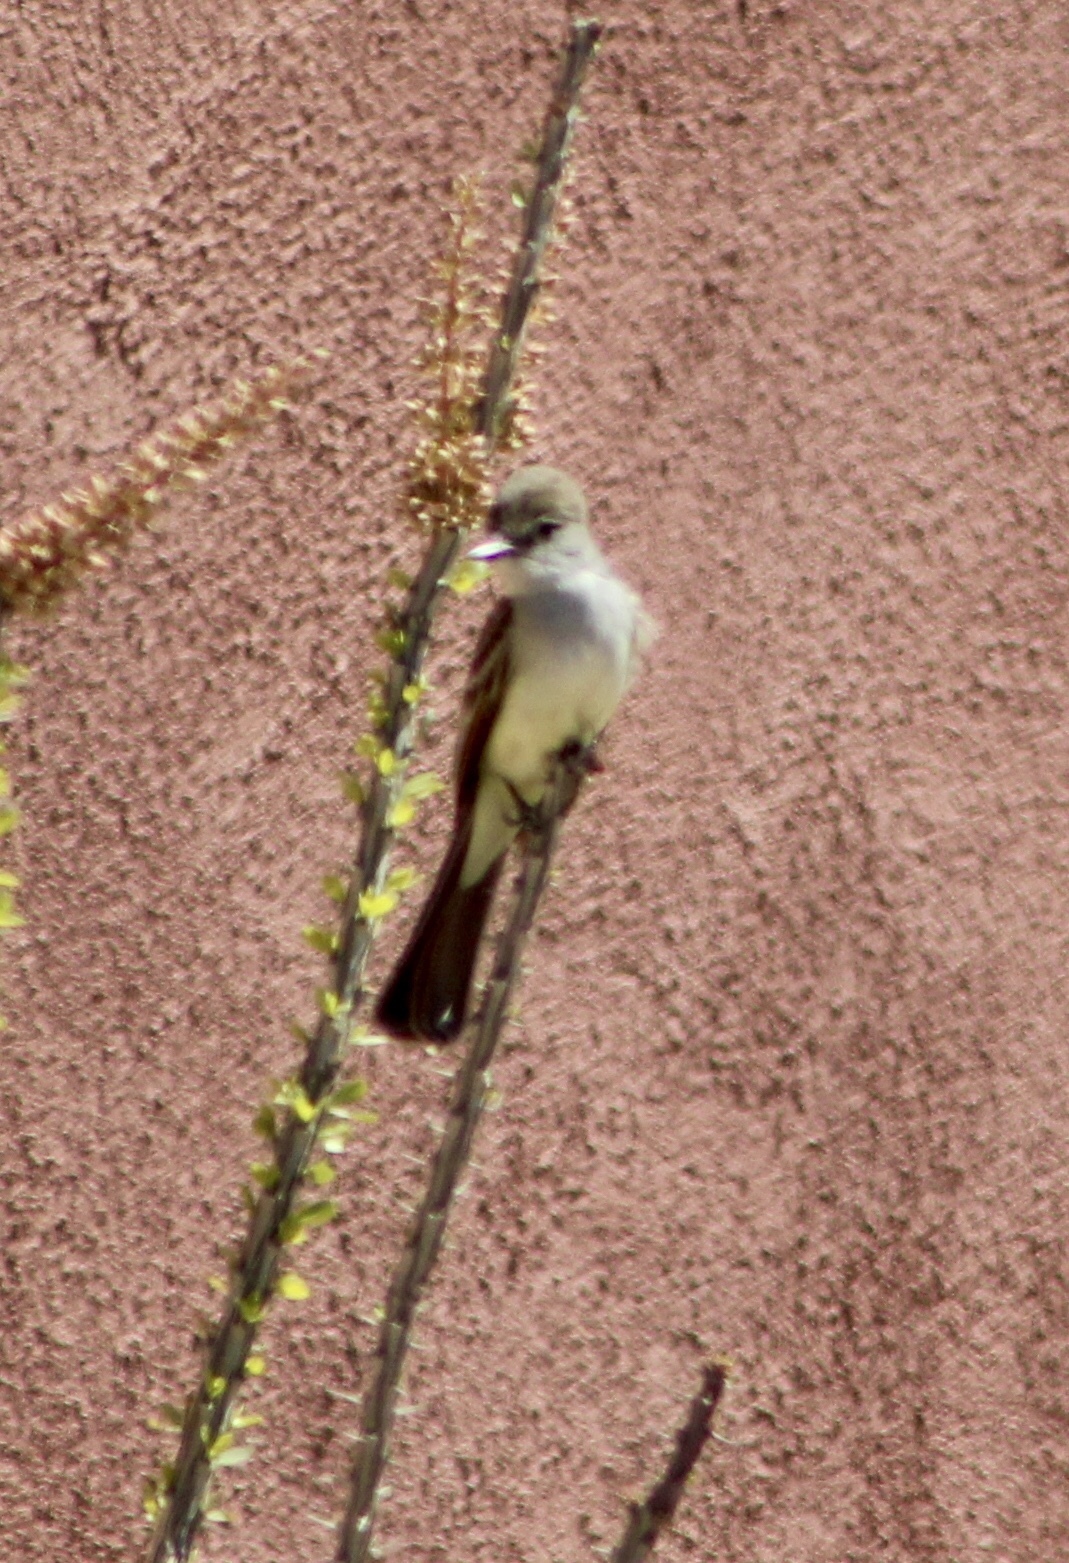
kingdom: Animalia
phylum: Chordata
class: Aves
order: Passeriformes
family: Tyrannidae
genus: Myiarchus
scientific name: Myiarchus cinerascens
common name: Ash-throated flycatcher
